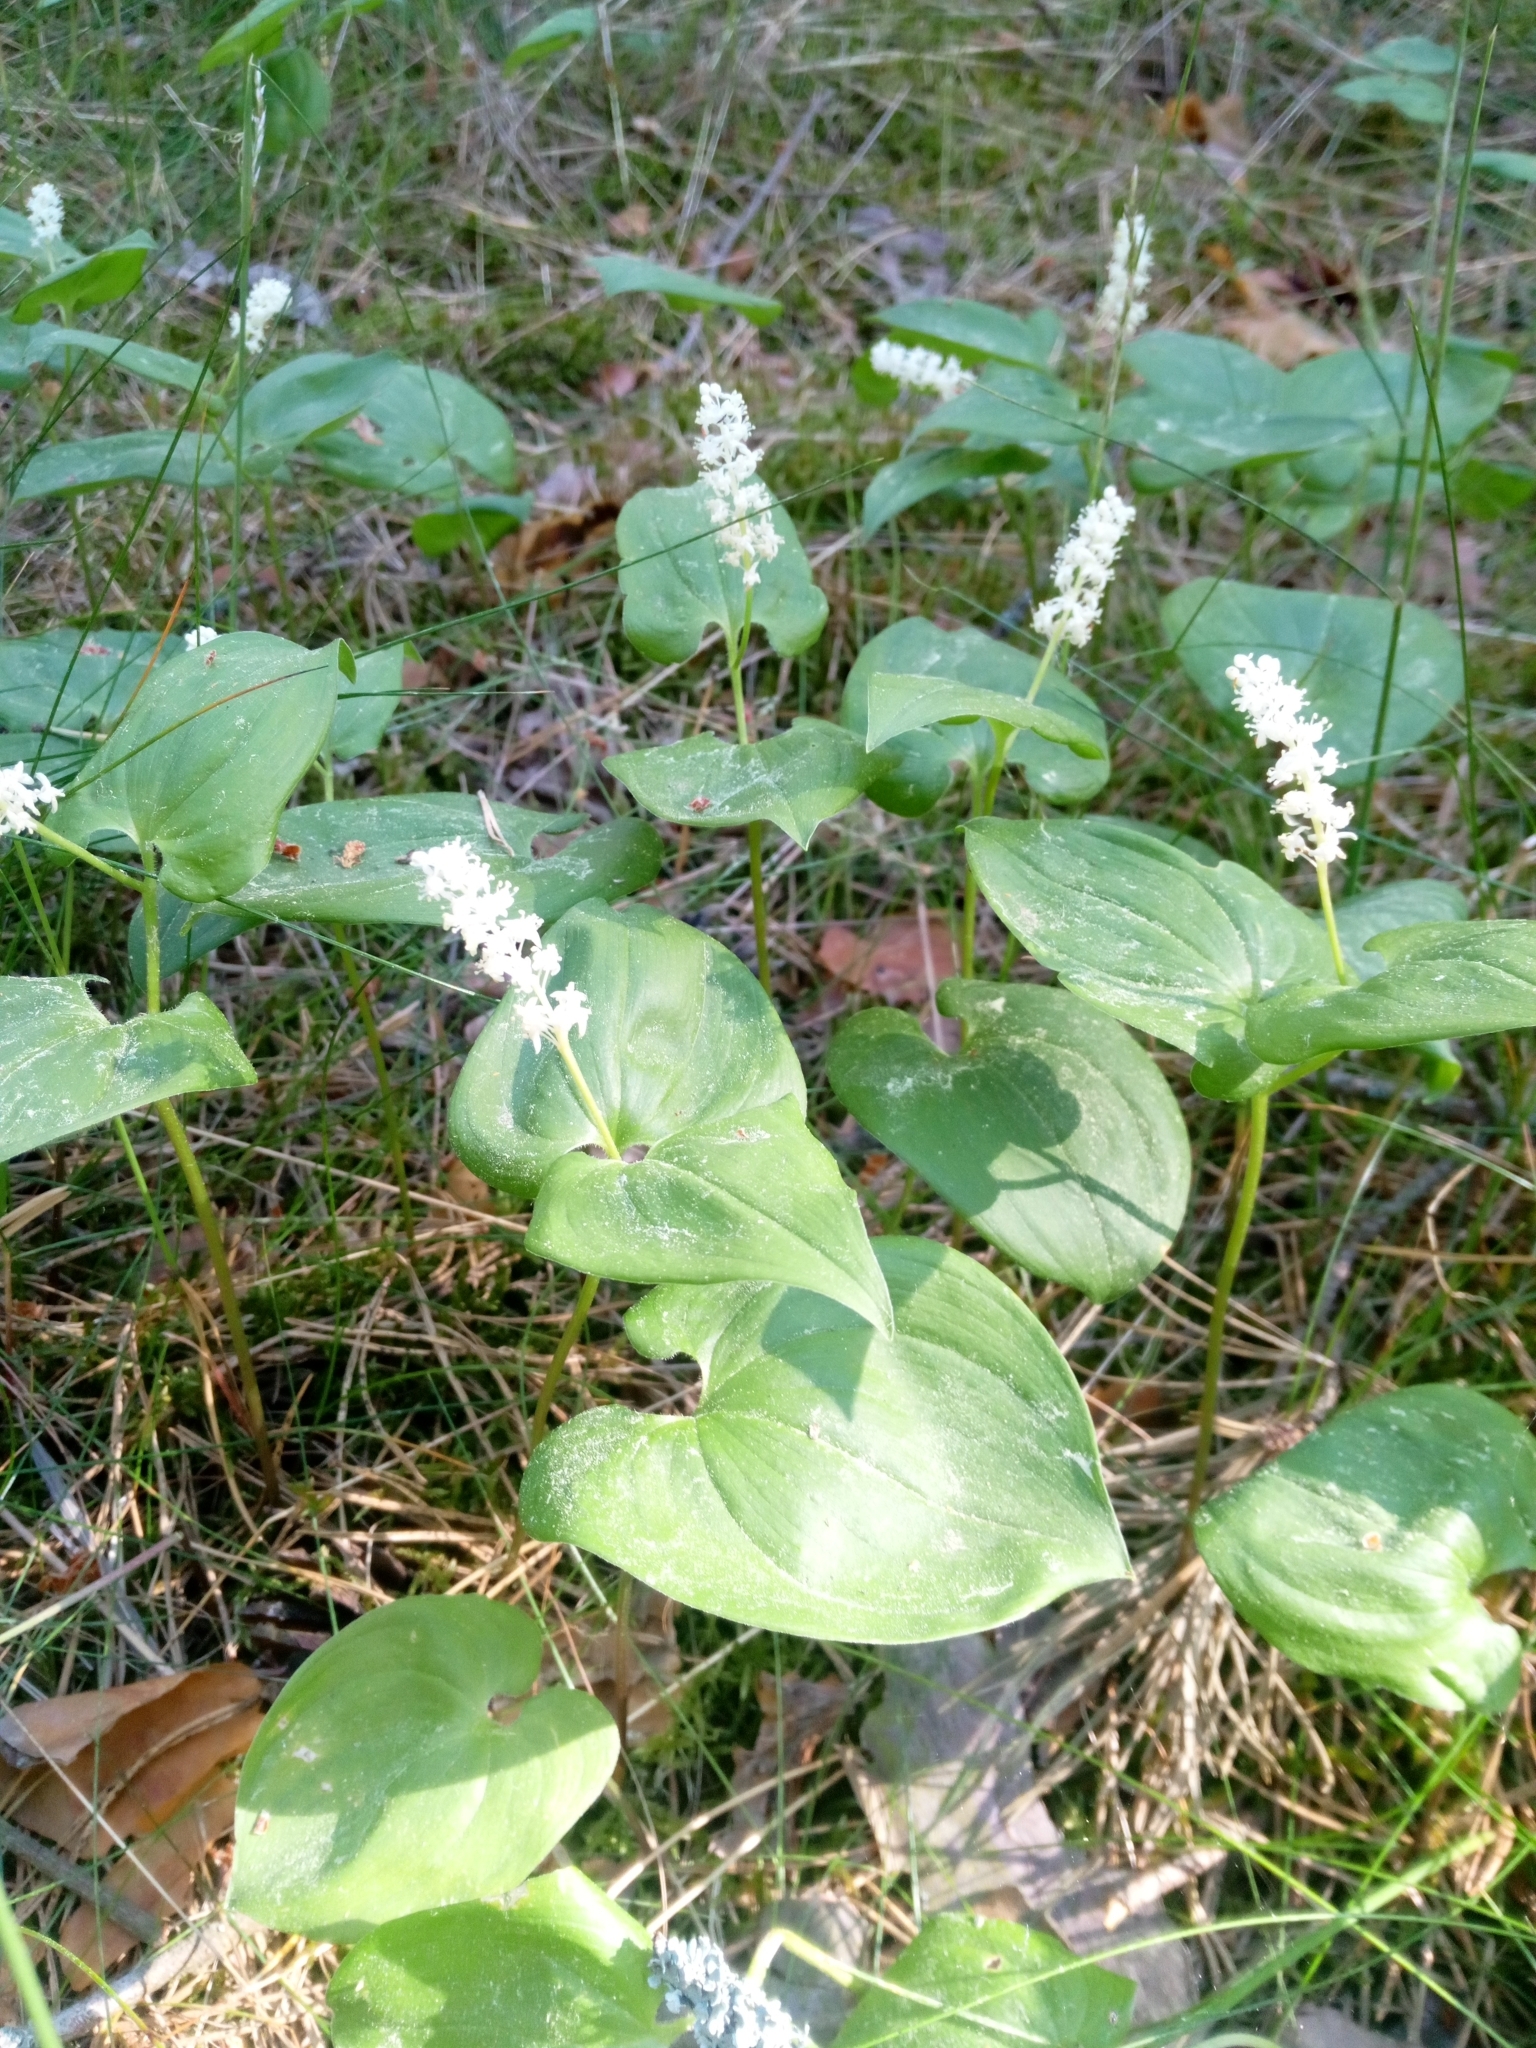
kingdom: Plantae
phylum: Tracheophyta
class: Liliopsida
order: Asparagales
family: Asparagaceae
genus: Maianthemum
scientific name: Maianthemum bifolium
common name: May lily
